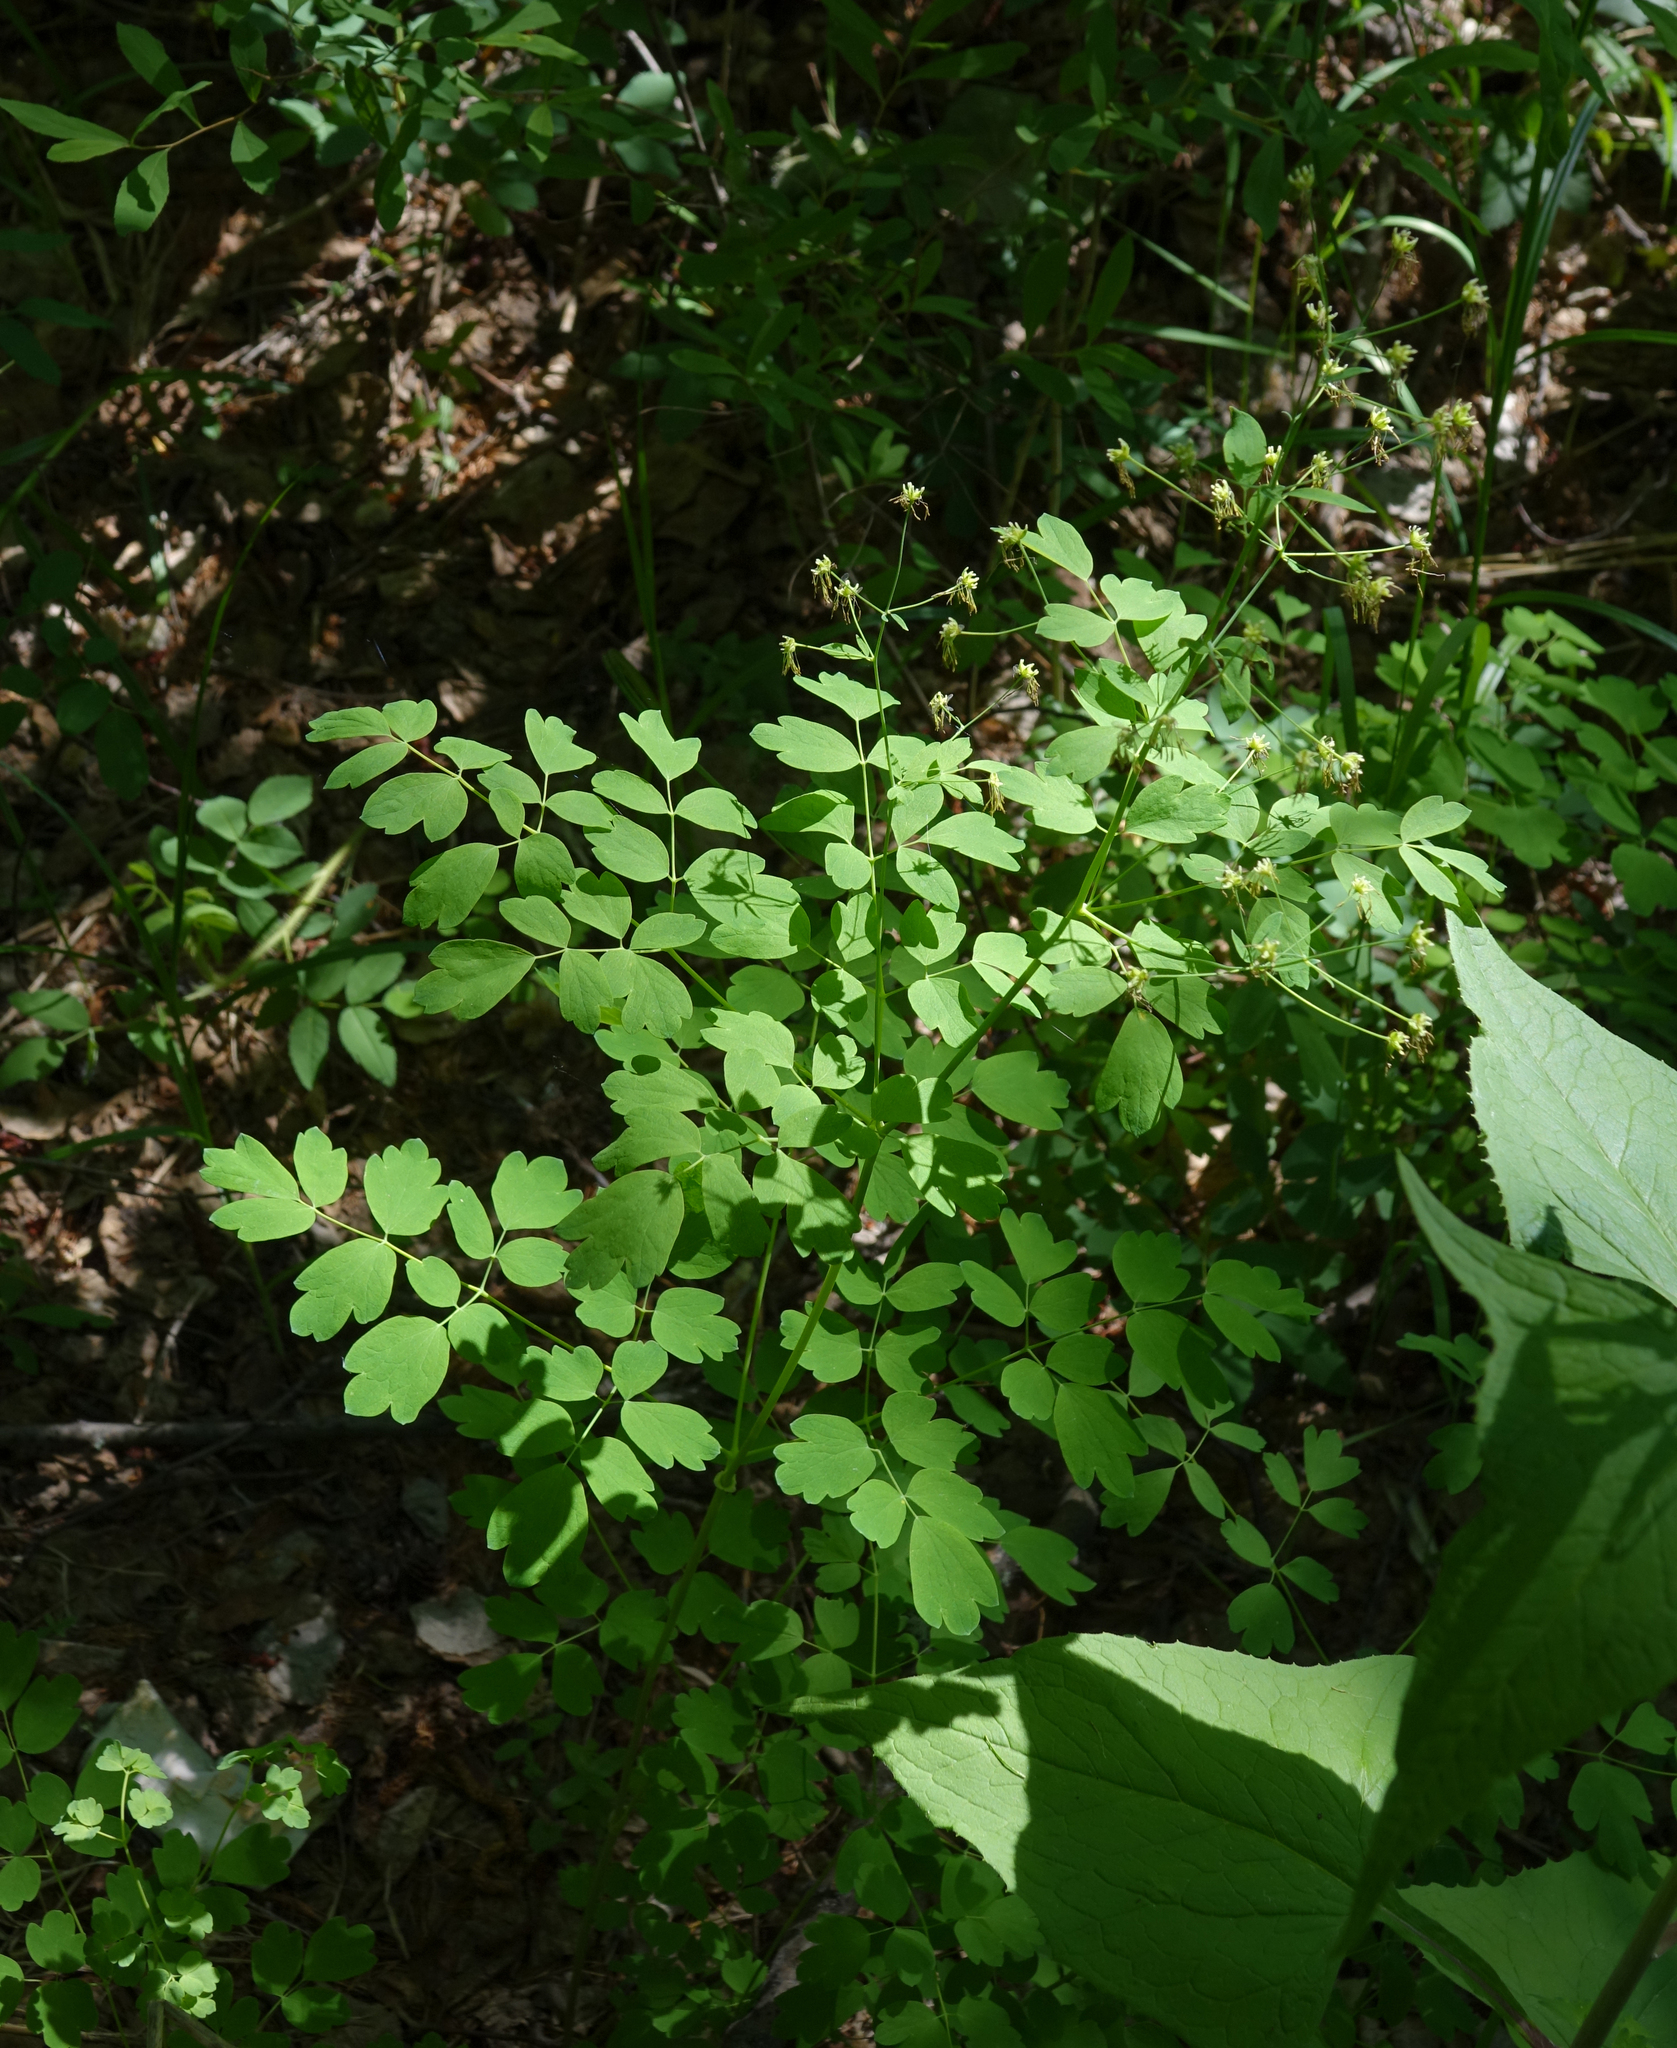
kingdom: Plantae
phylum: Tracheophyta
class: Magnoliopsida
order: Ranunculales
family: Ranunculaceae
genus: Thalictrum
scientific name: Thalictrum minus
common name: Lesser meadow-rue
